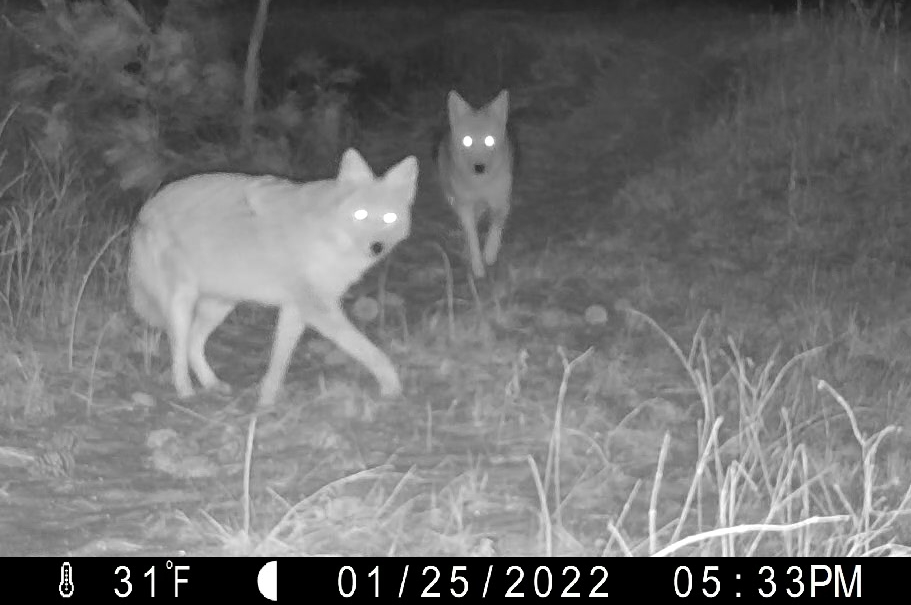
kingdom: Animalia
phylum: Chordata
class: Mammalia
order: Carnivora
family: Canidae
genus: Canis
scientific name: Canis latrans
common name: Coyote
